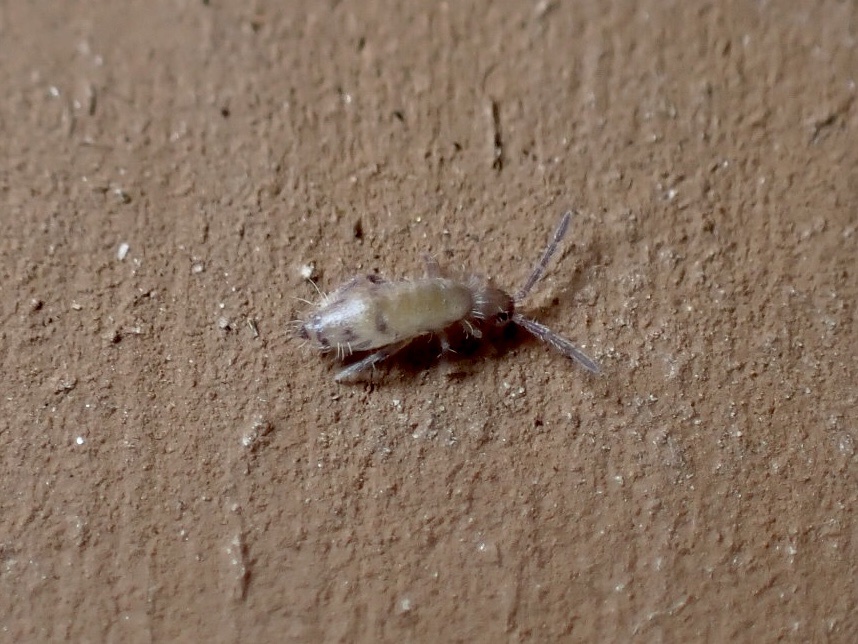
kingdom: Animalia
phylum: Arthropoda
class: Collembola
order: Entomobryomorpha
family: Entomobryidae
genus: Willowsia
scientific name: Willowsia nigromaculata
